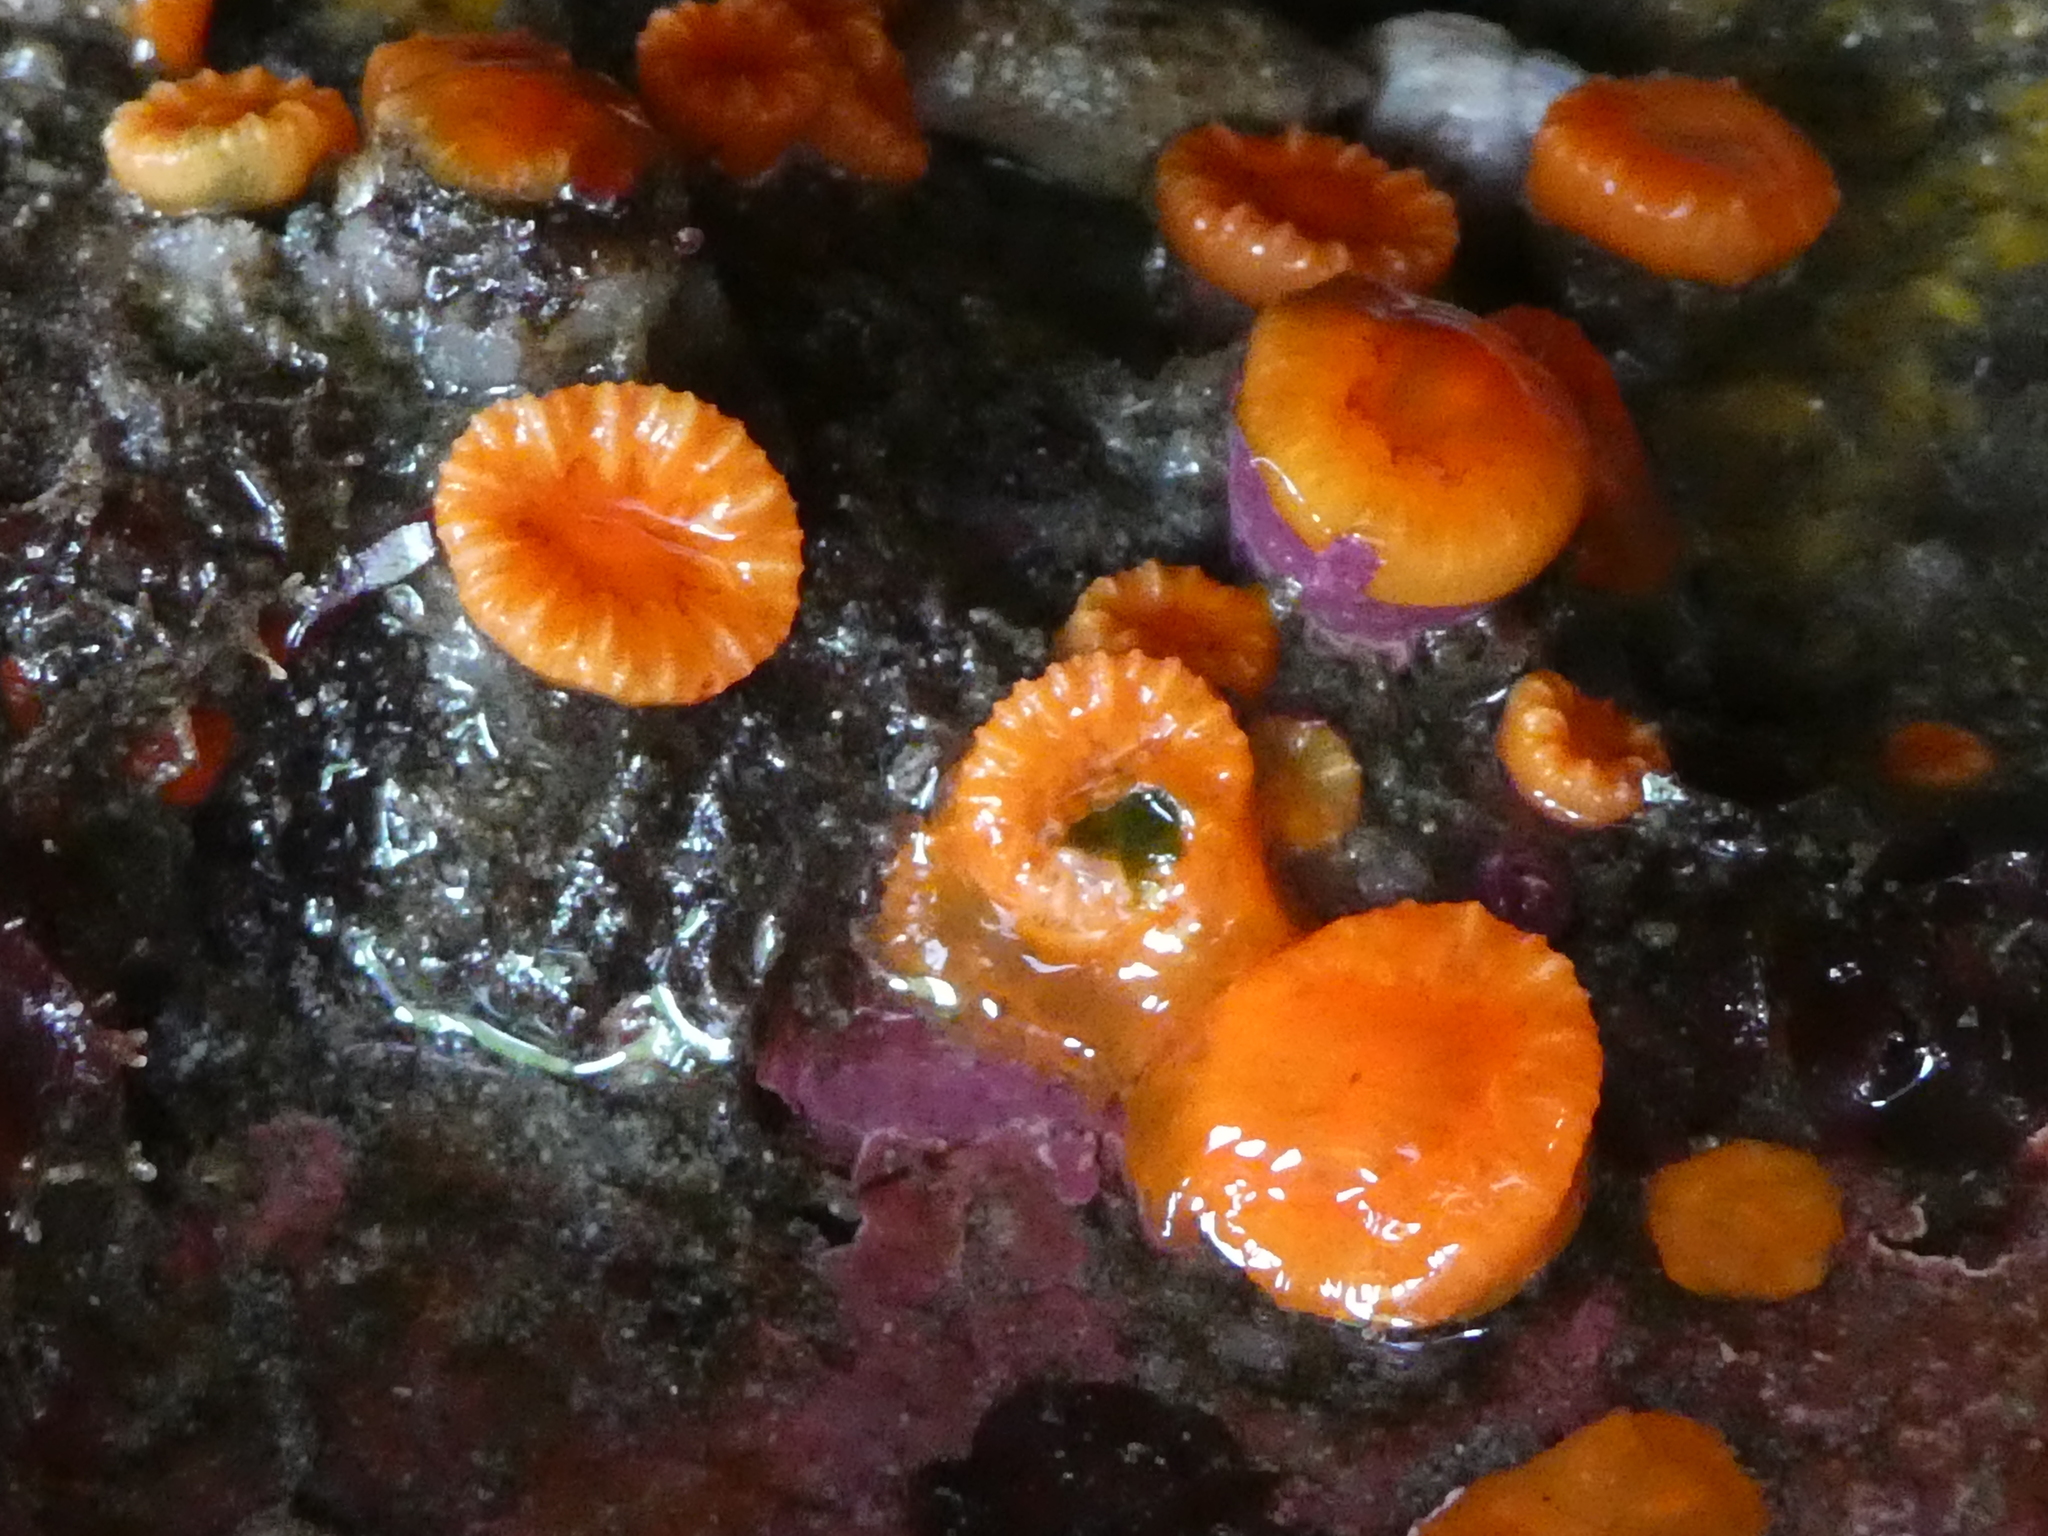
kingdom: Animalia
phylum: Cnidaria
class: Anthozoa
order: Scleractinia
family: Dendrophylliidae
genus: Balanophyllia
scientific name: Balanophyllia elegans
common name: Orange stony coral
